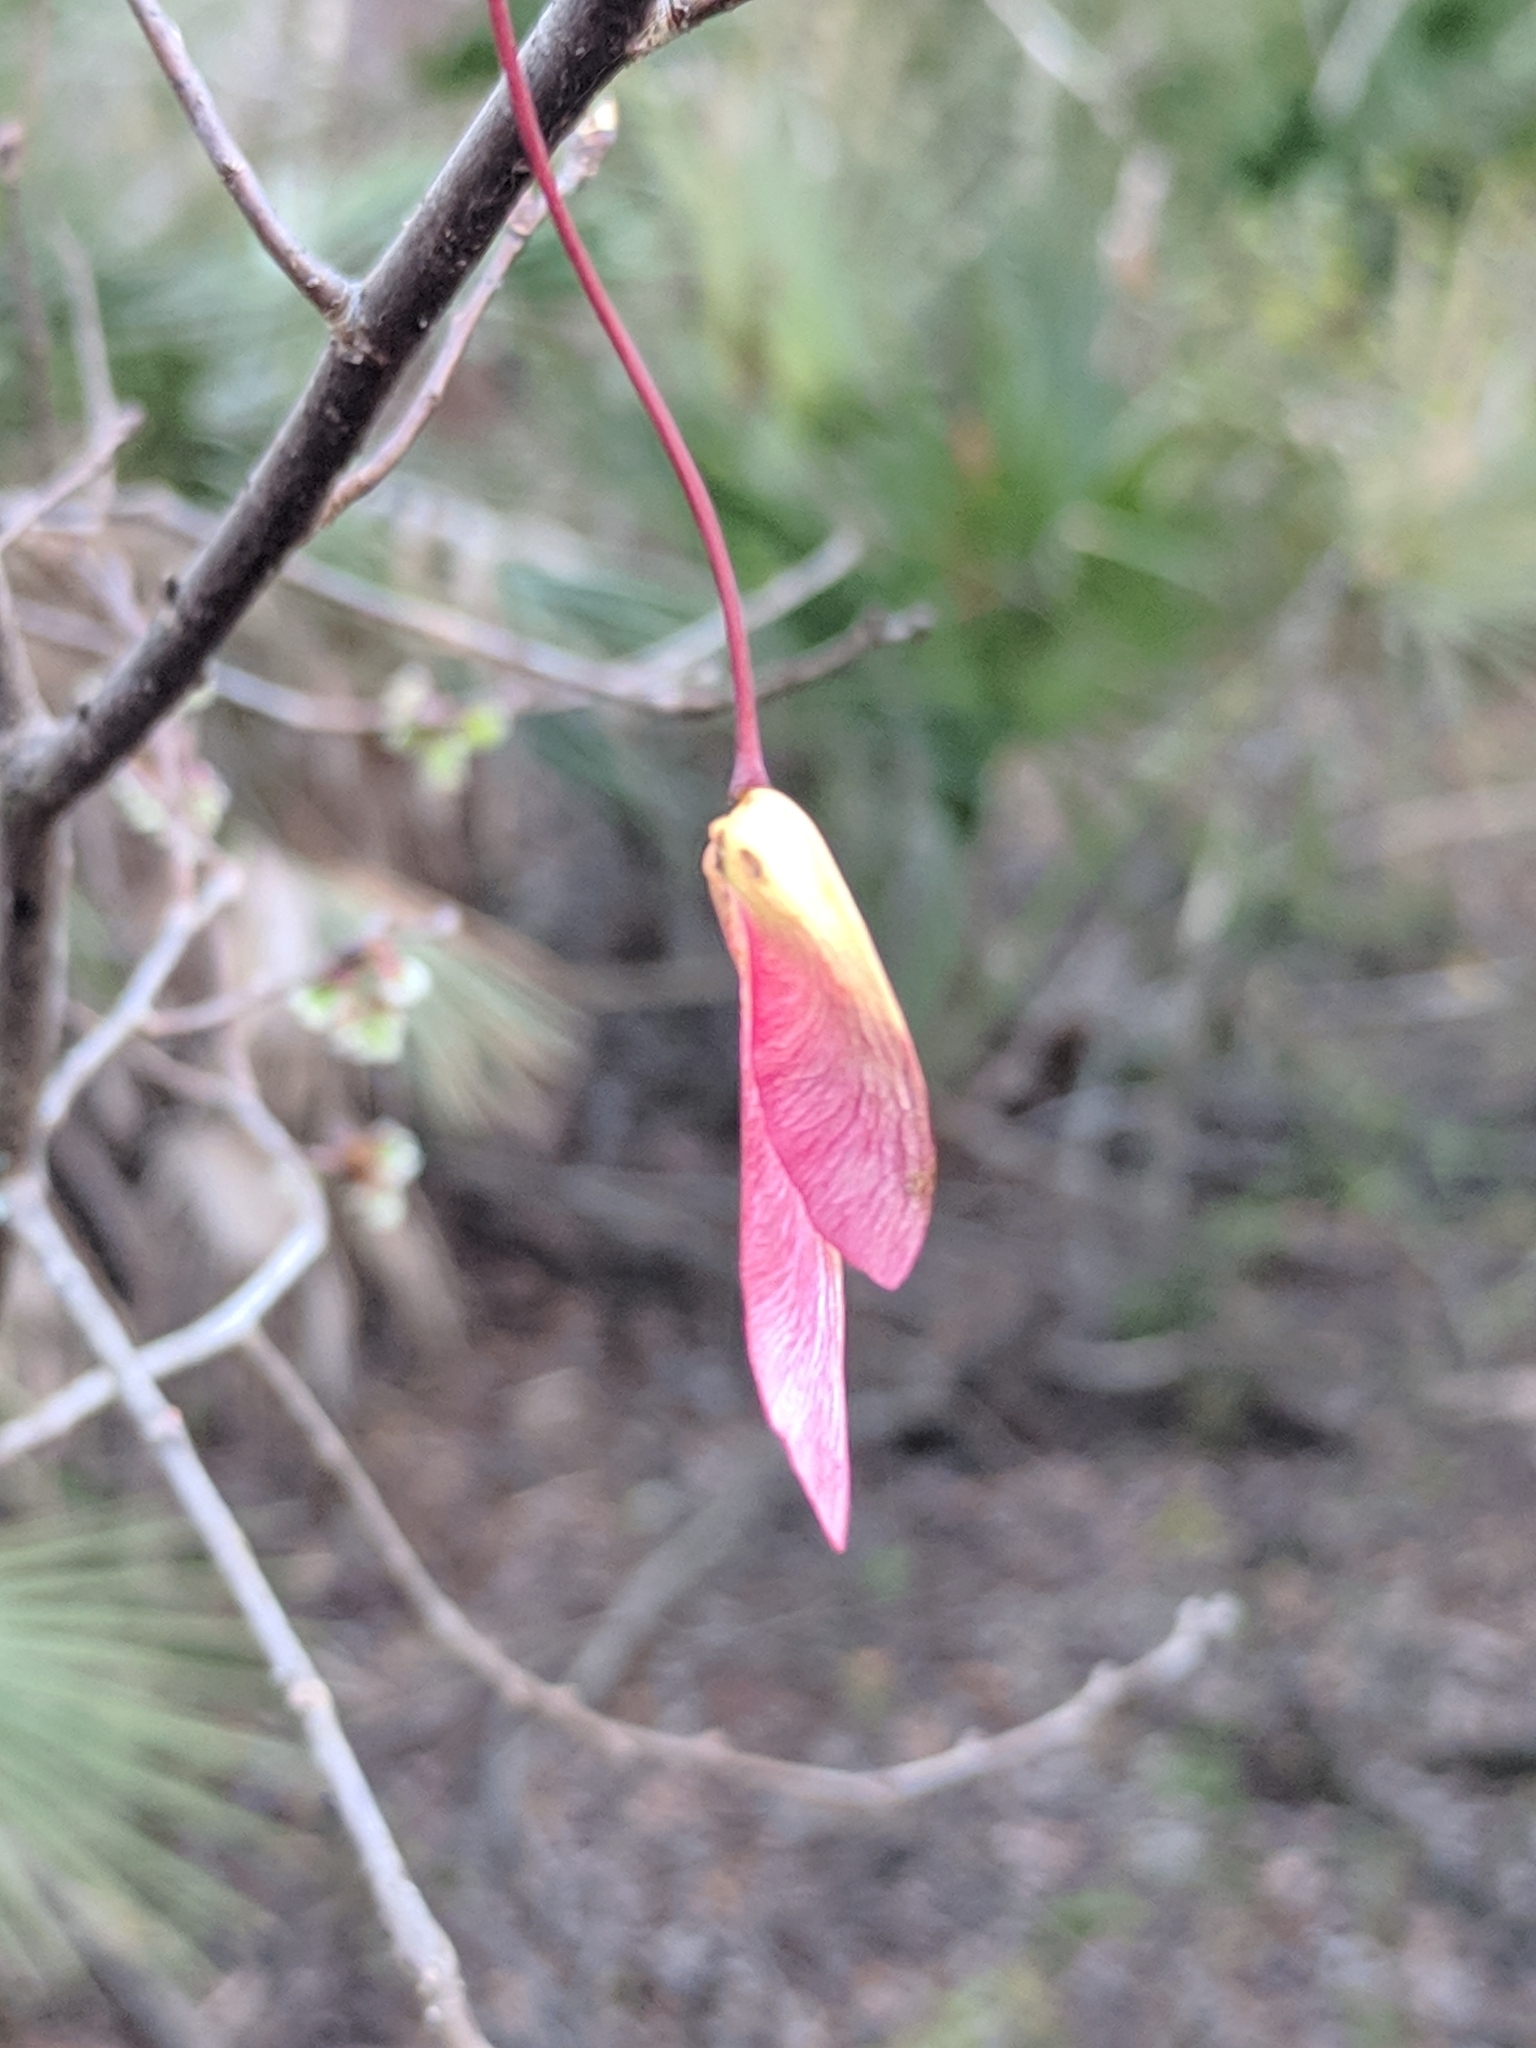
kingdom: Plantae
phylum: Tracheophyta
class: Magnoliopsida
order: Sapindales
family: Sapindaceae
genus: Acer
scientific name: Acer rubrum
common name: Red maple
